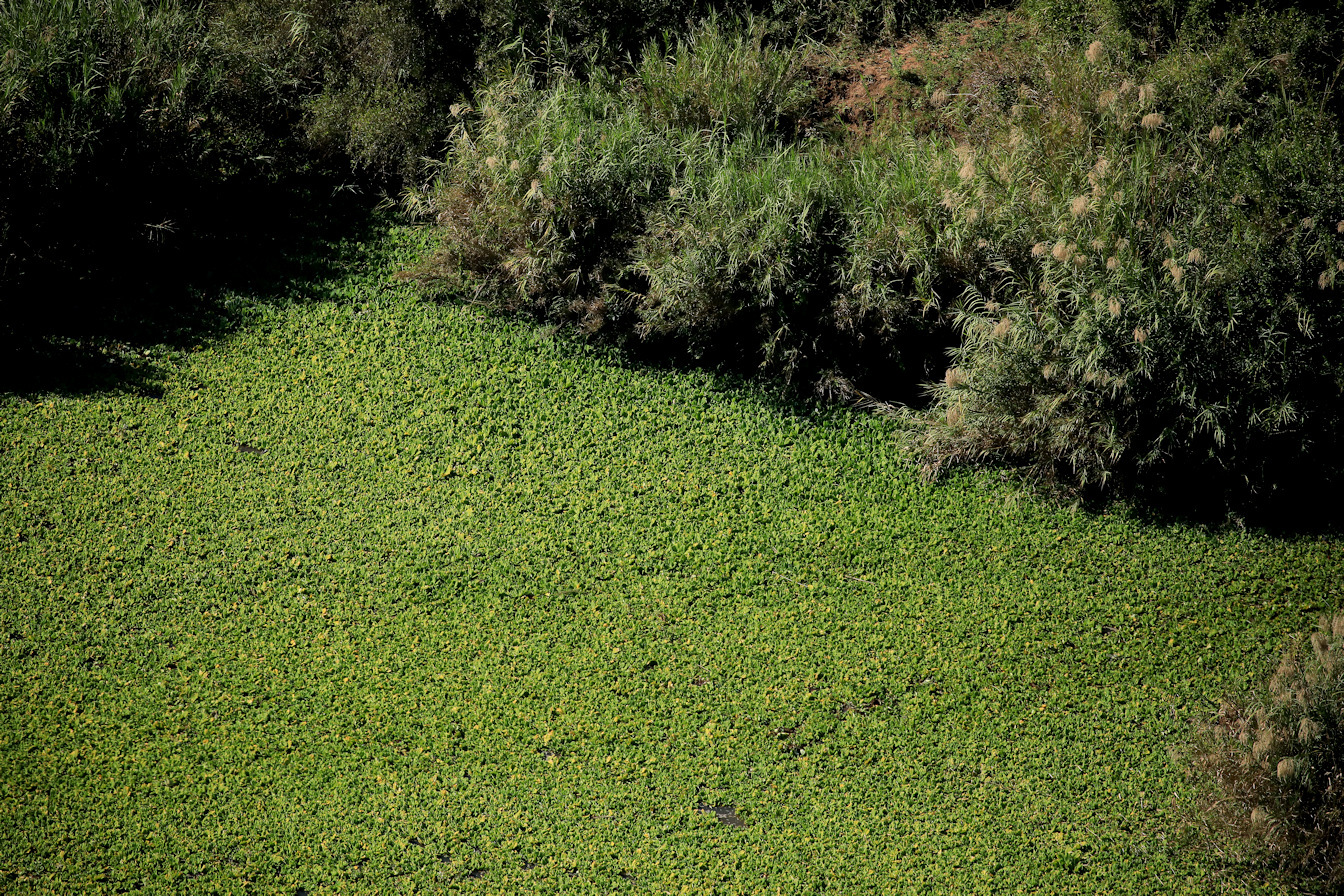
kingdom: Plantae
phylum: Tracheophyta
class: Liliopsida
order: Alismatales
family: Araceae
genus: Pistia
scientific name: Pistia stratiotes
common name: Water lettuce
